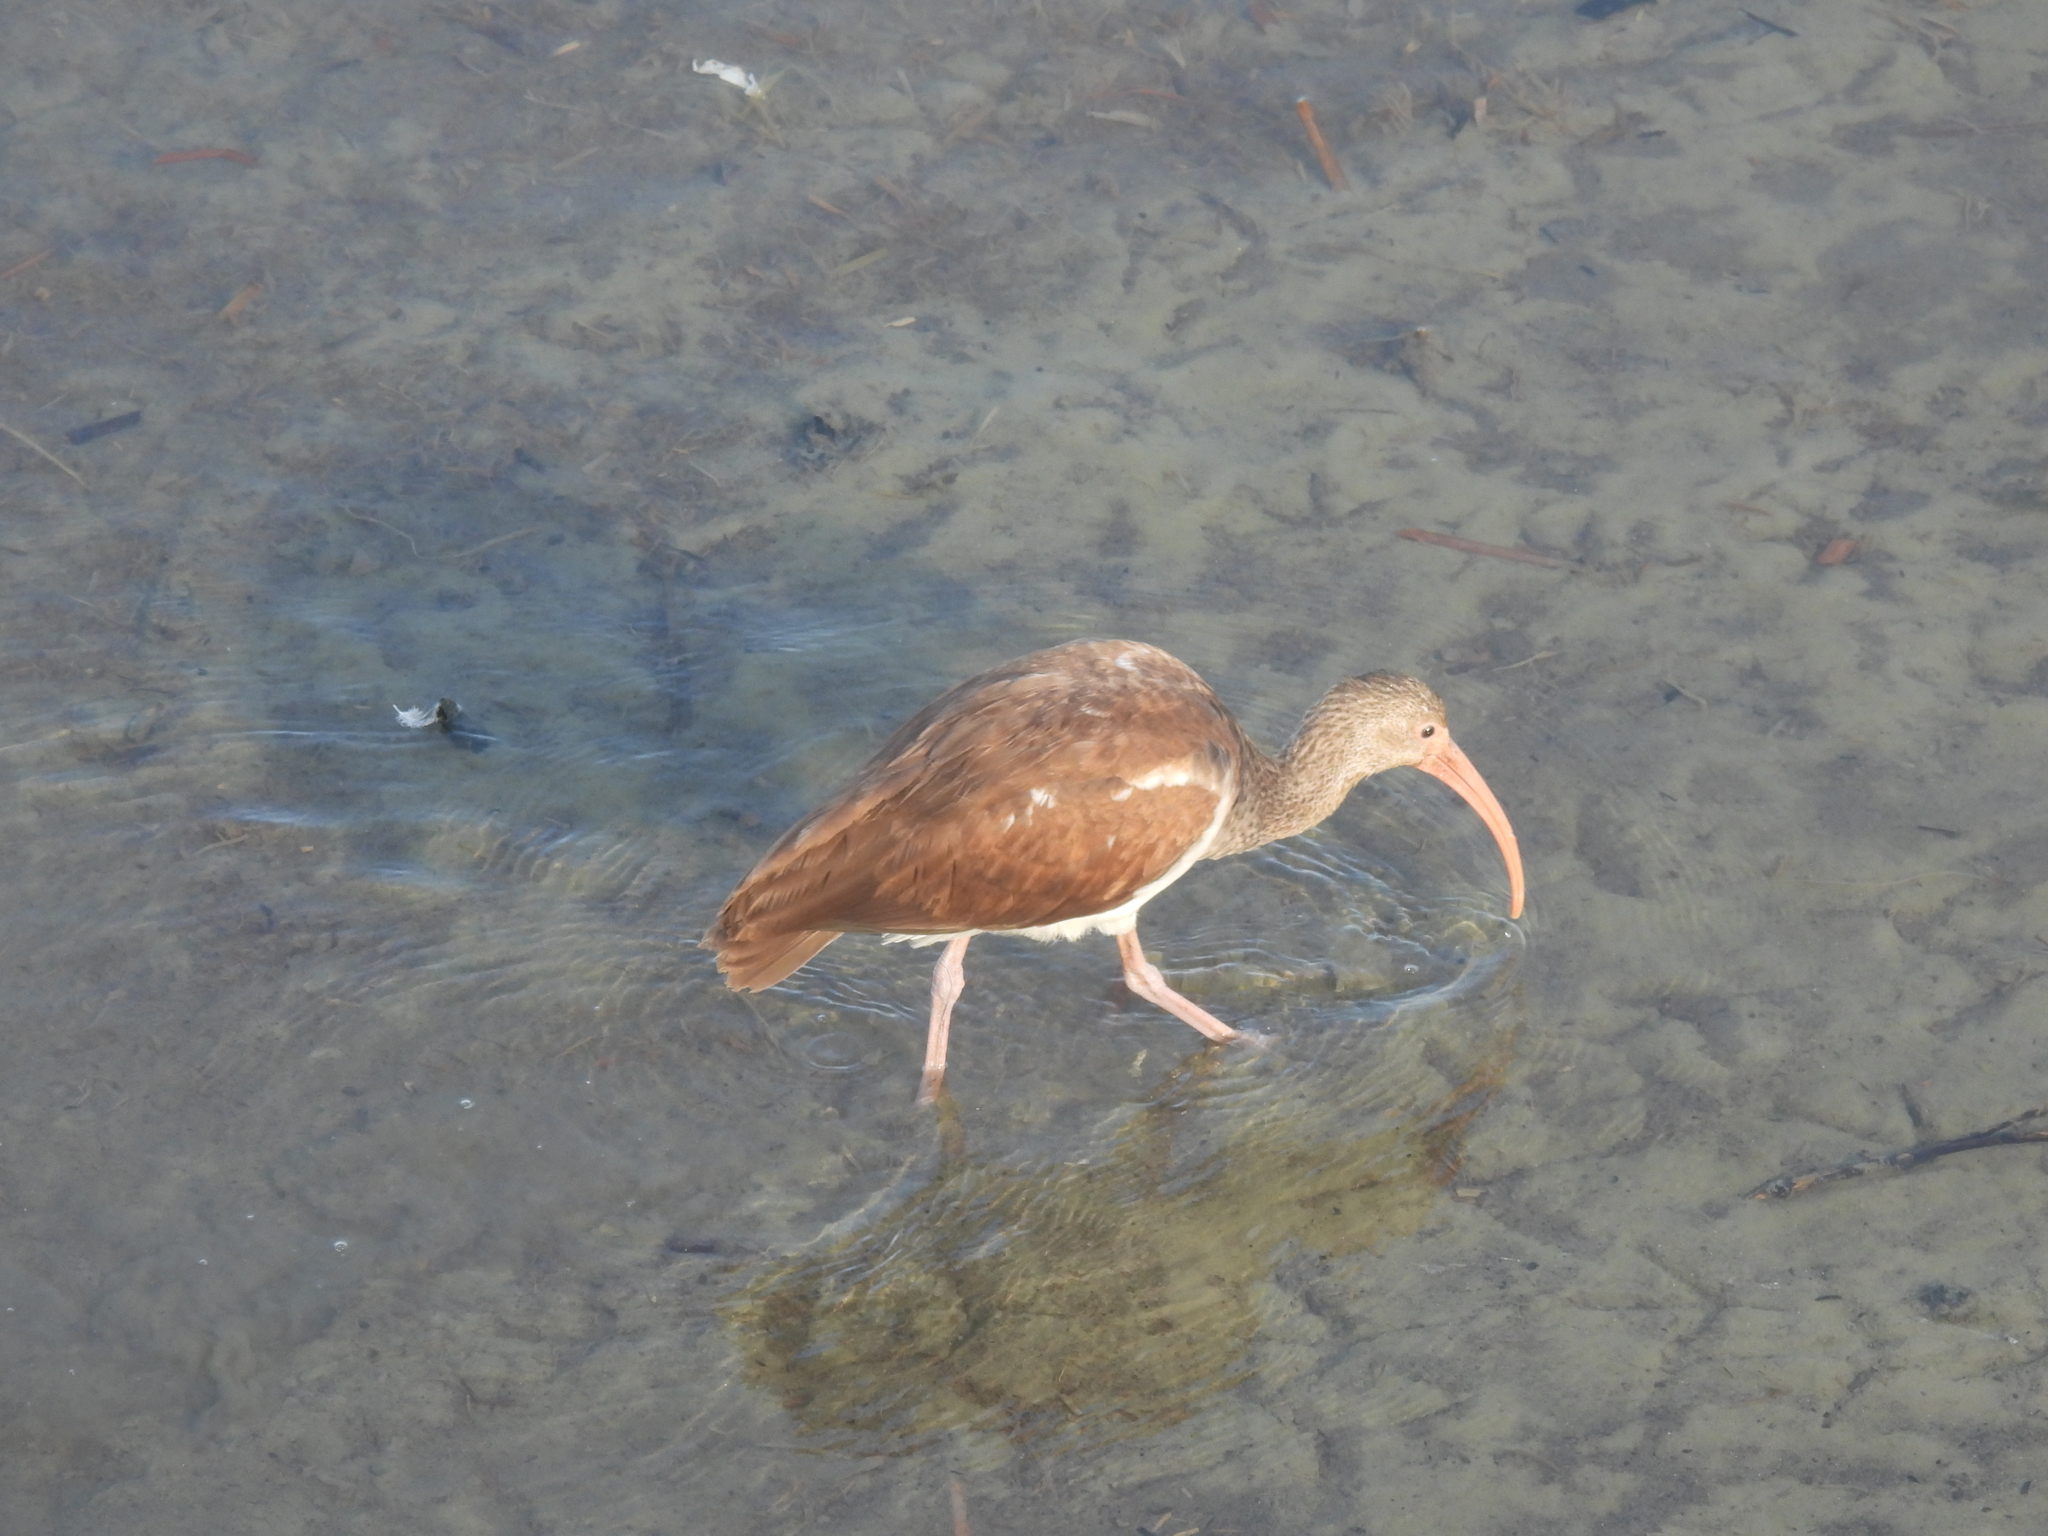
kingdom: Animalia
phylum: Chordata
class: Aves
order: Pelecaniformes
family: Threskiornithidae
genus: Eudocimus
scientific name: Eudocimus albus
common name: White ibis
